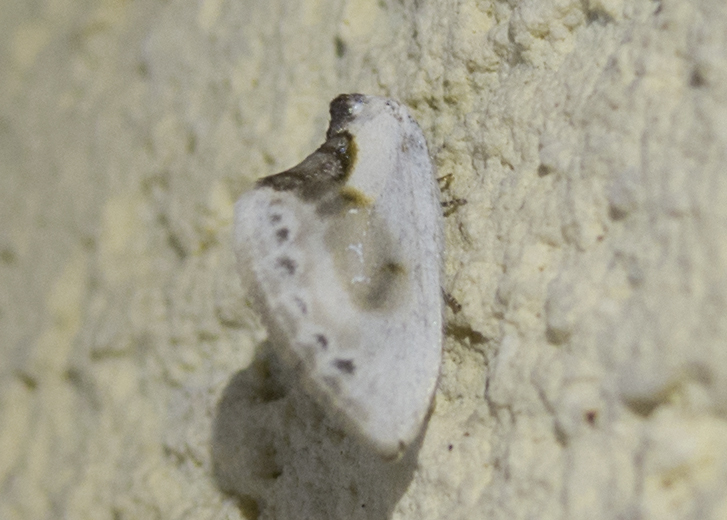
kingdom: Animalia
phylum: Arthropoda
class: Insecta
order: Lepidoptera
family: Drepanidae
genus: Cilix
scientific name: Cilix glaucata
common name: Chinese character
